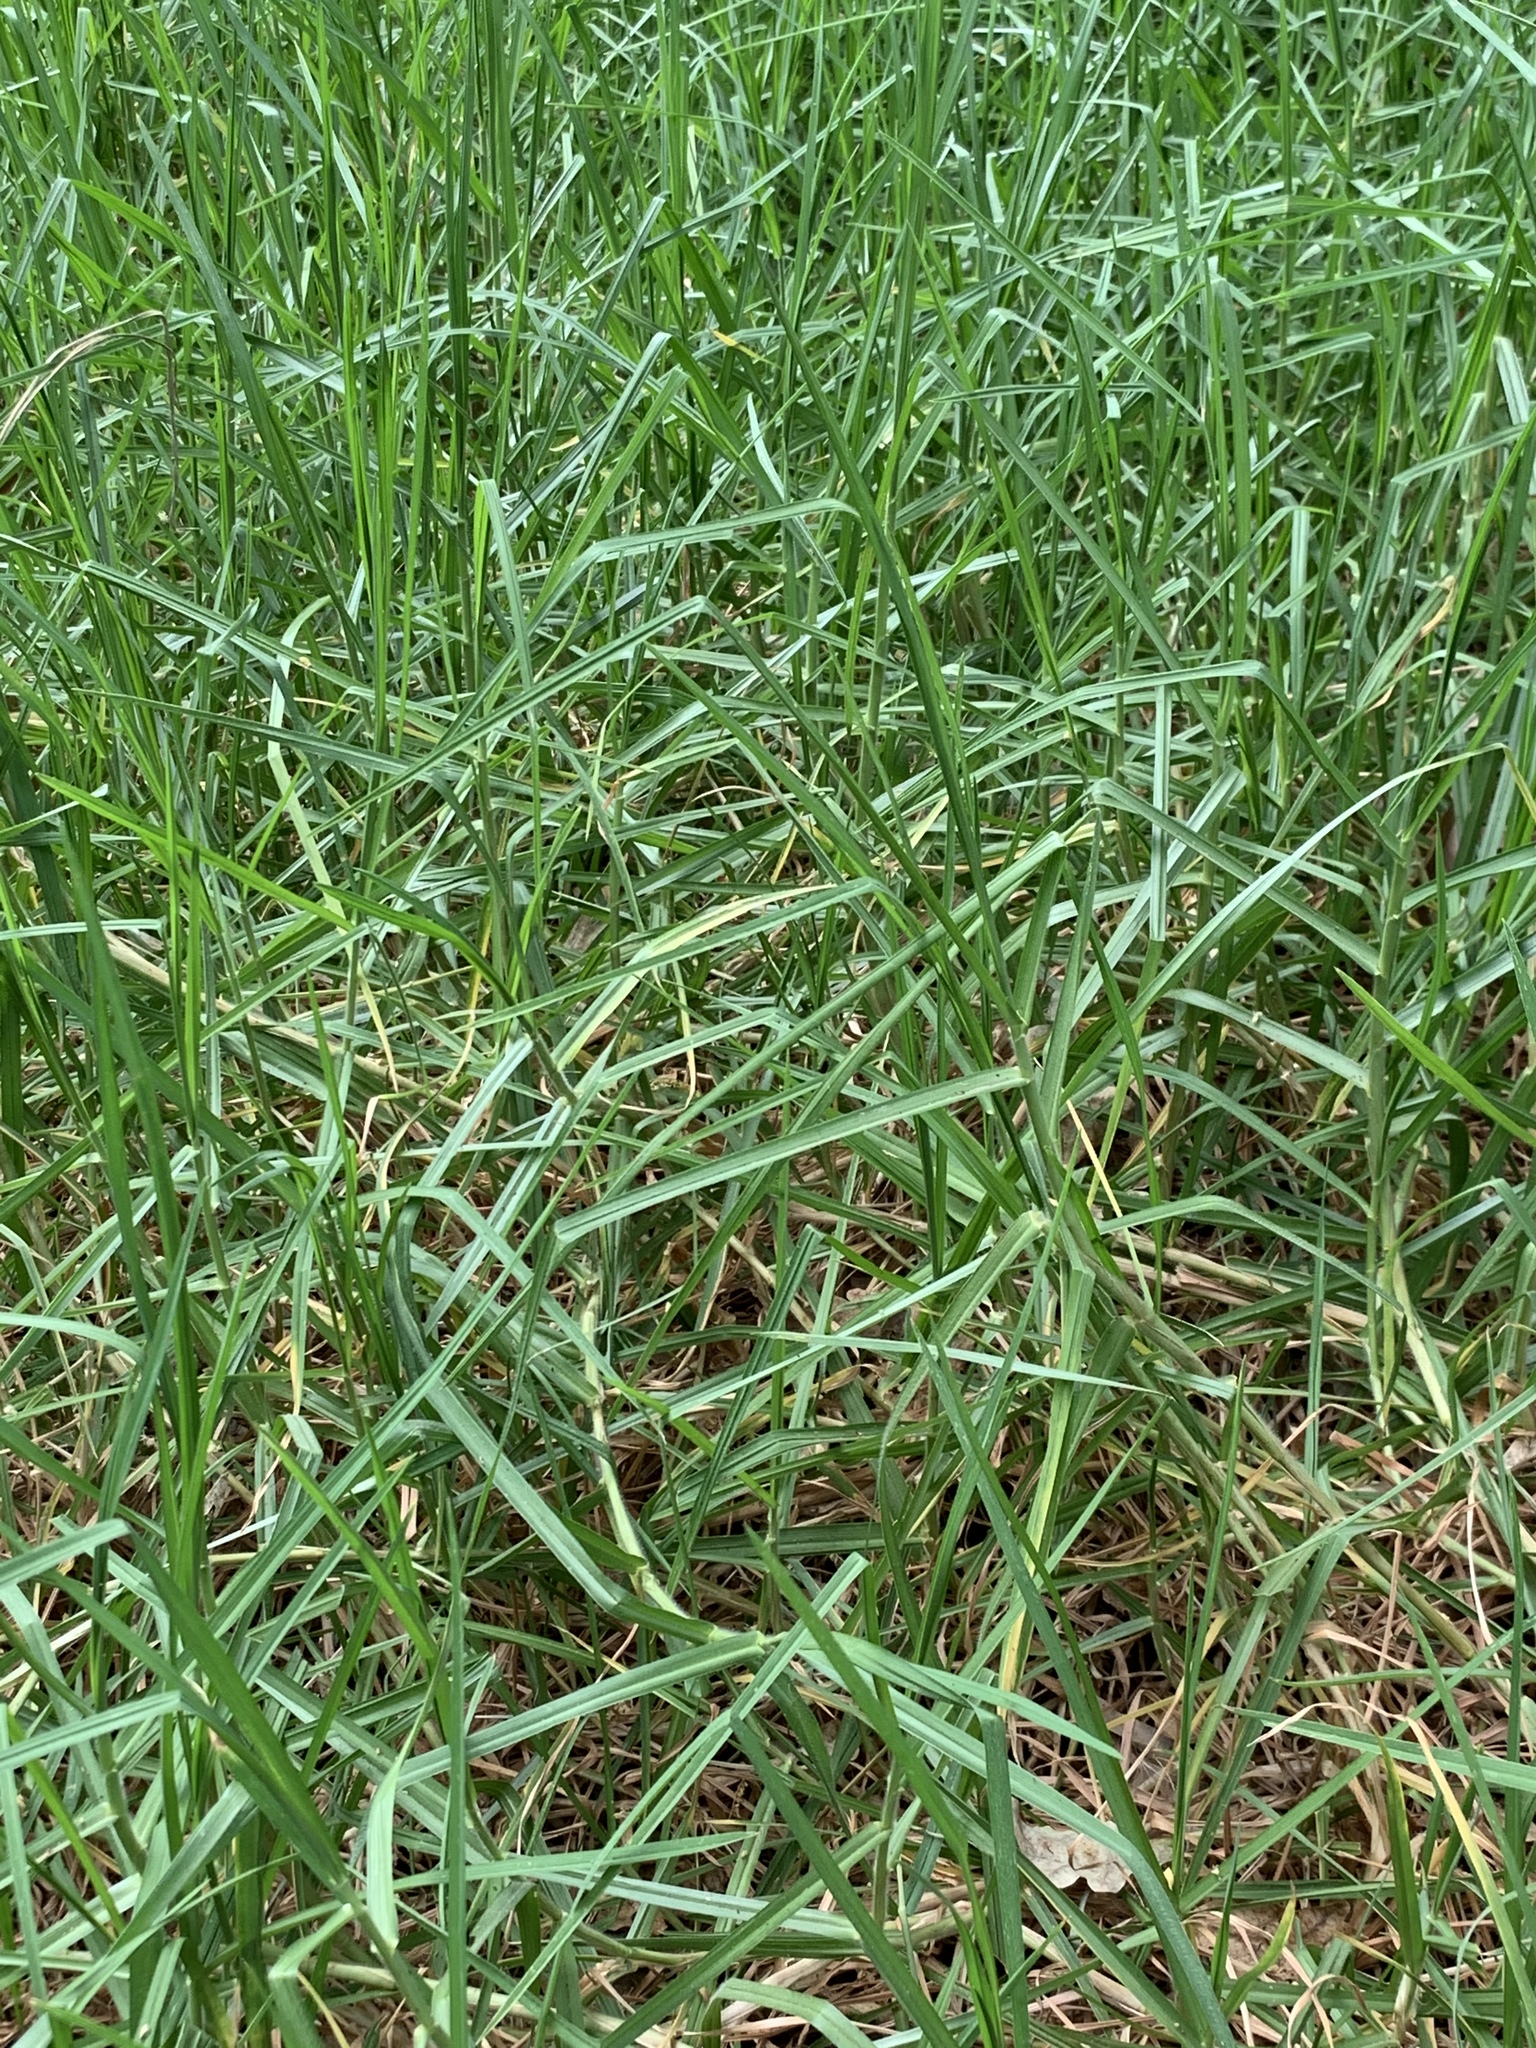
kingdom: Plantae
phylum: Tracheophyta
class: Liliopsida
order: Poales
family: Poaceae
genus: Cenchrus
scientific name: Cenchrus clandestinus
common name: Kikuyugrass
